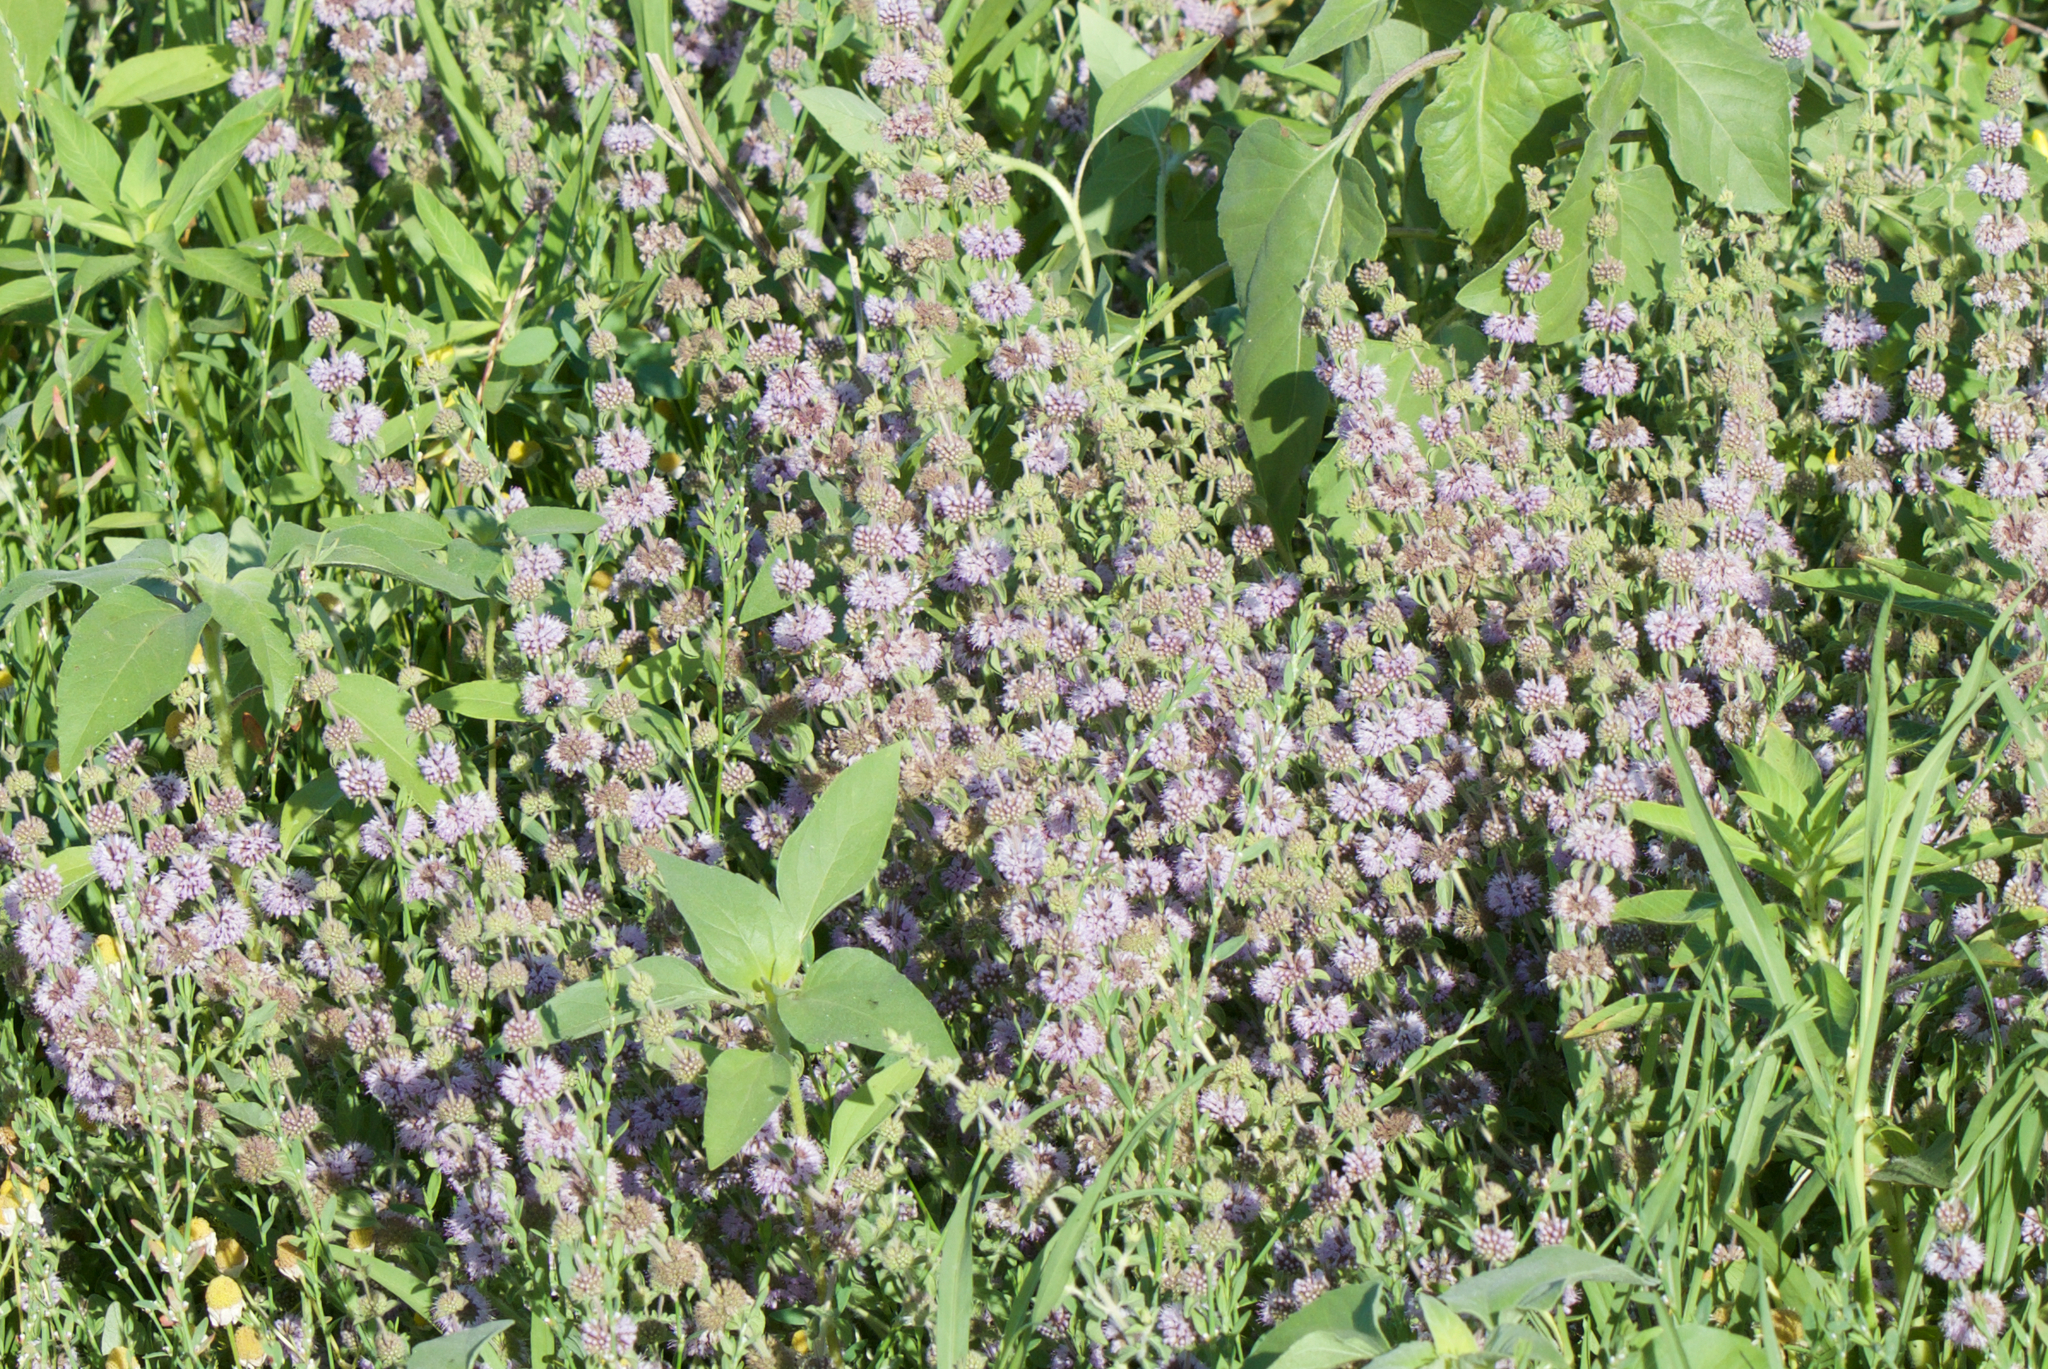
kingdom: Plantae
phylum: Tracheophyta
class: Magnoliopsida
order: Lamiales
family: Lamiaceae
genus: Mentha
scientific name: Mentha pulegium
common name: Pennyroyal
